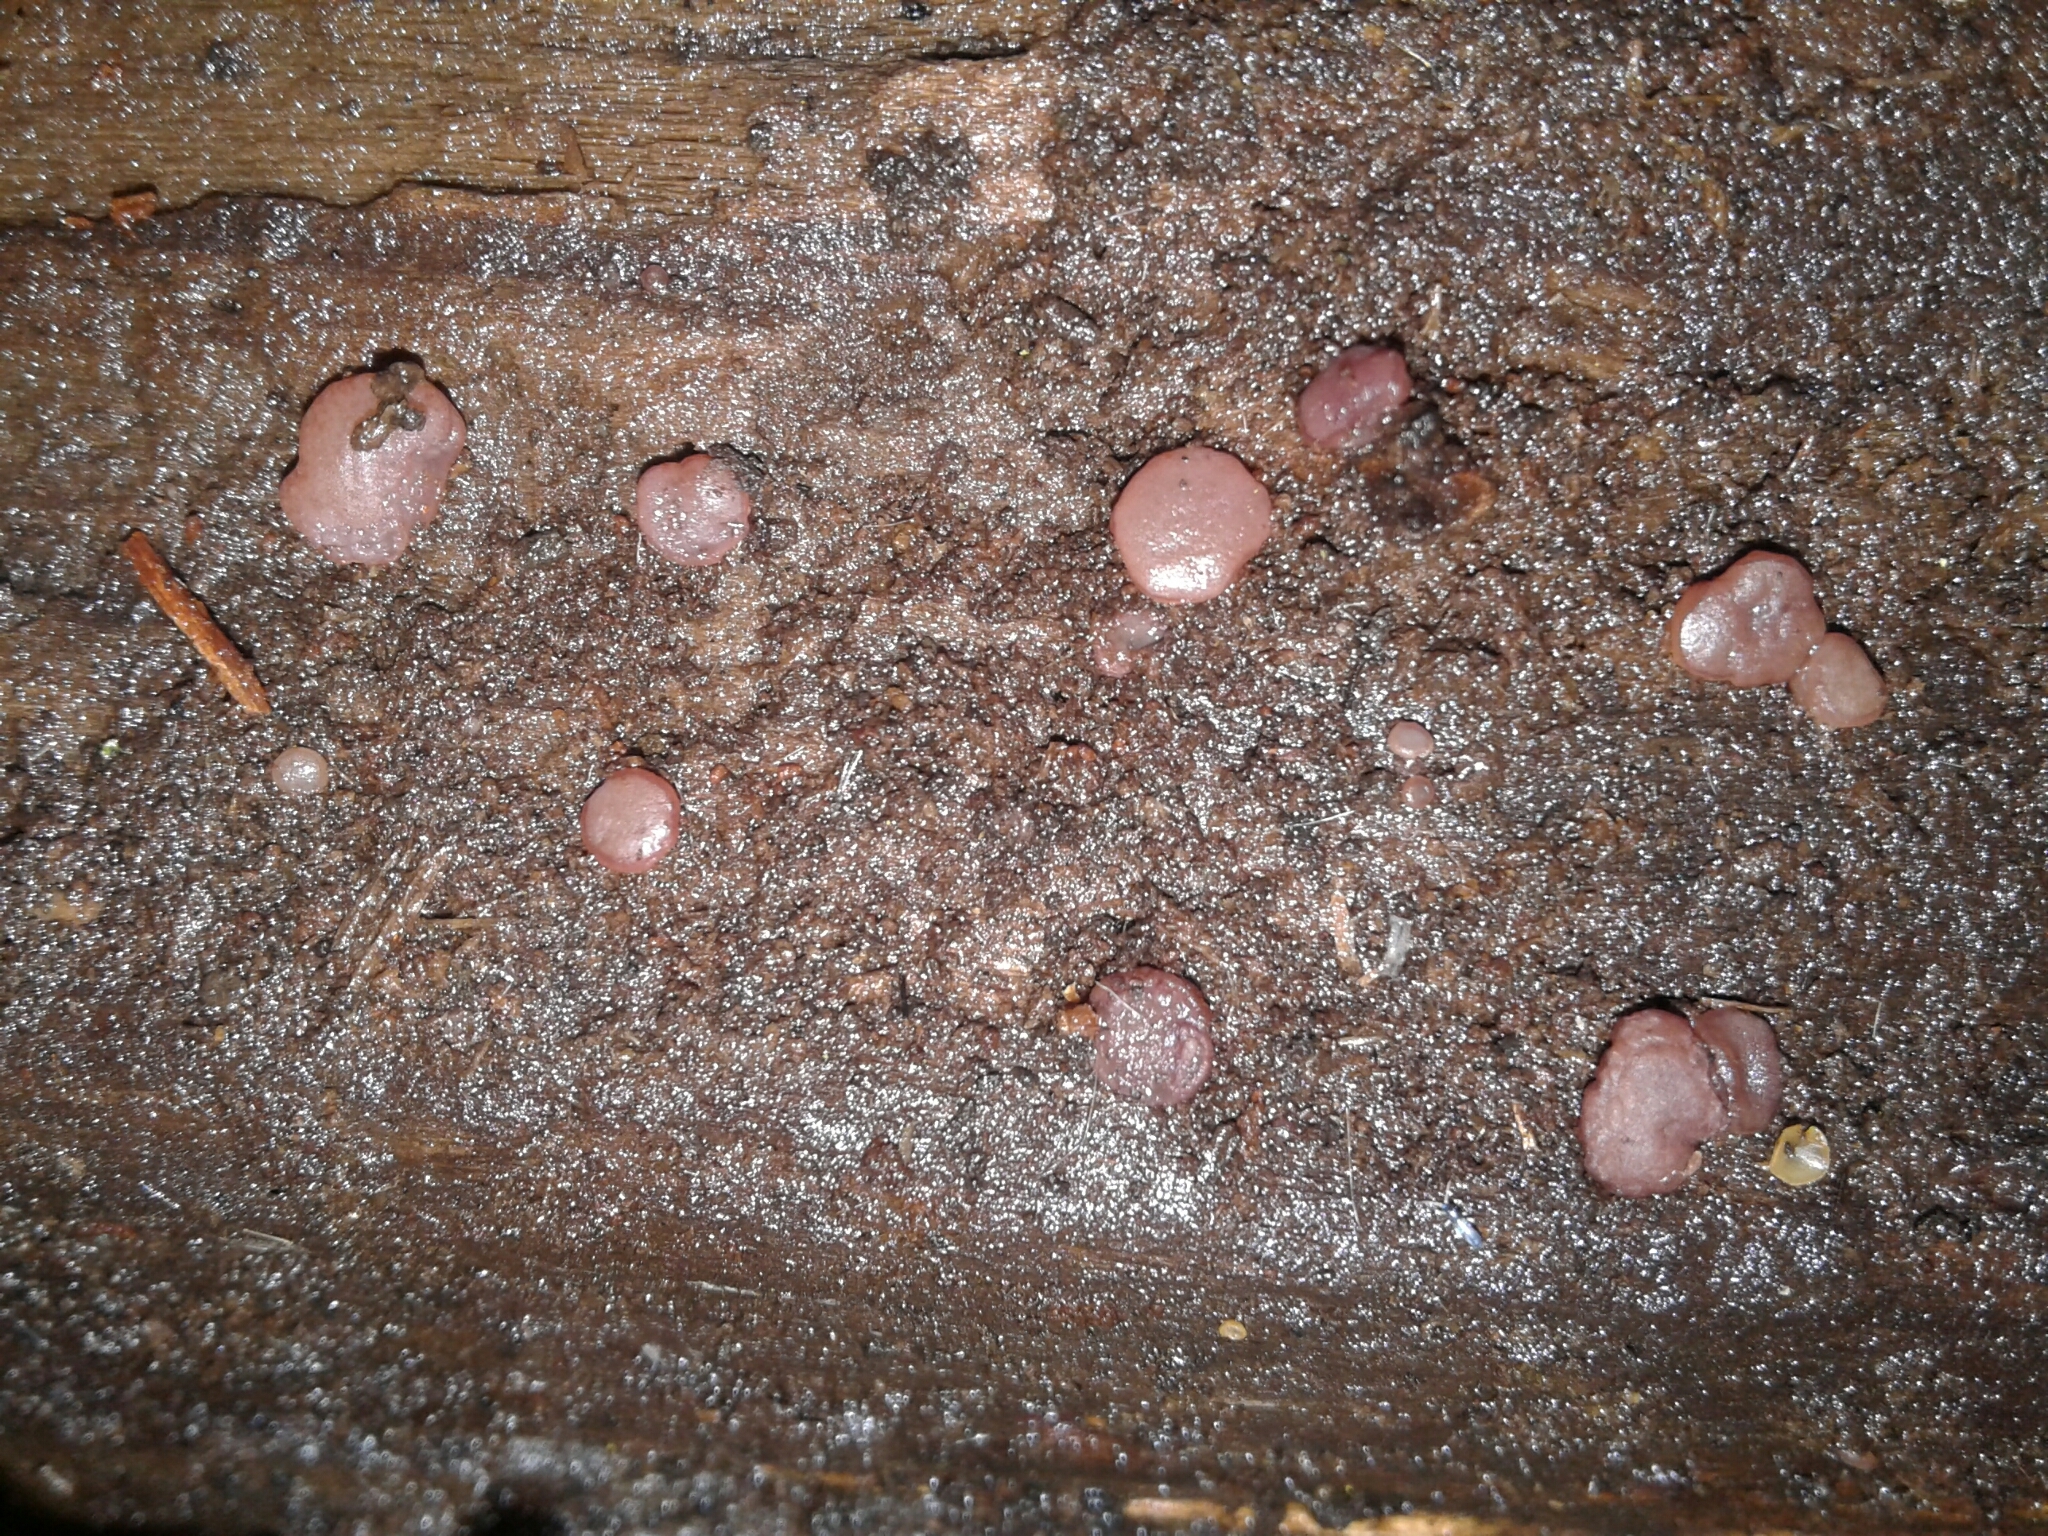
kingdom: Fungi
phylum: Ascomycota
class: Leotiomycetes
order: Helotiales
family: Gelatinodiscaceae
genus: Ascocoryne
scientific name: Ascocoryne sarcoides
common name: Purple jellydisc
